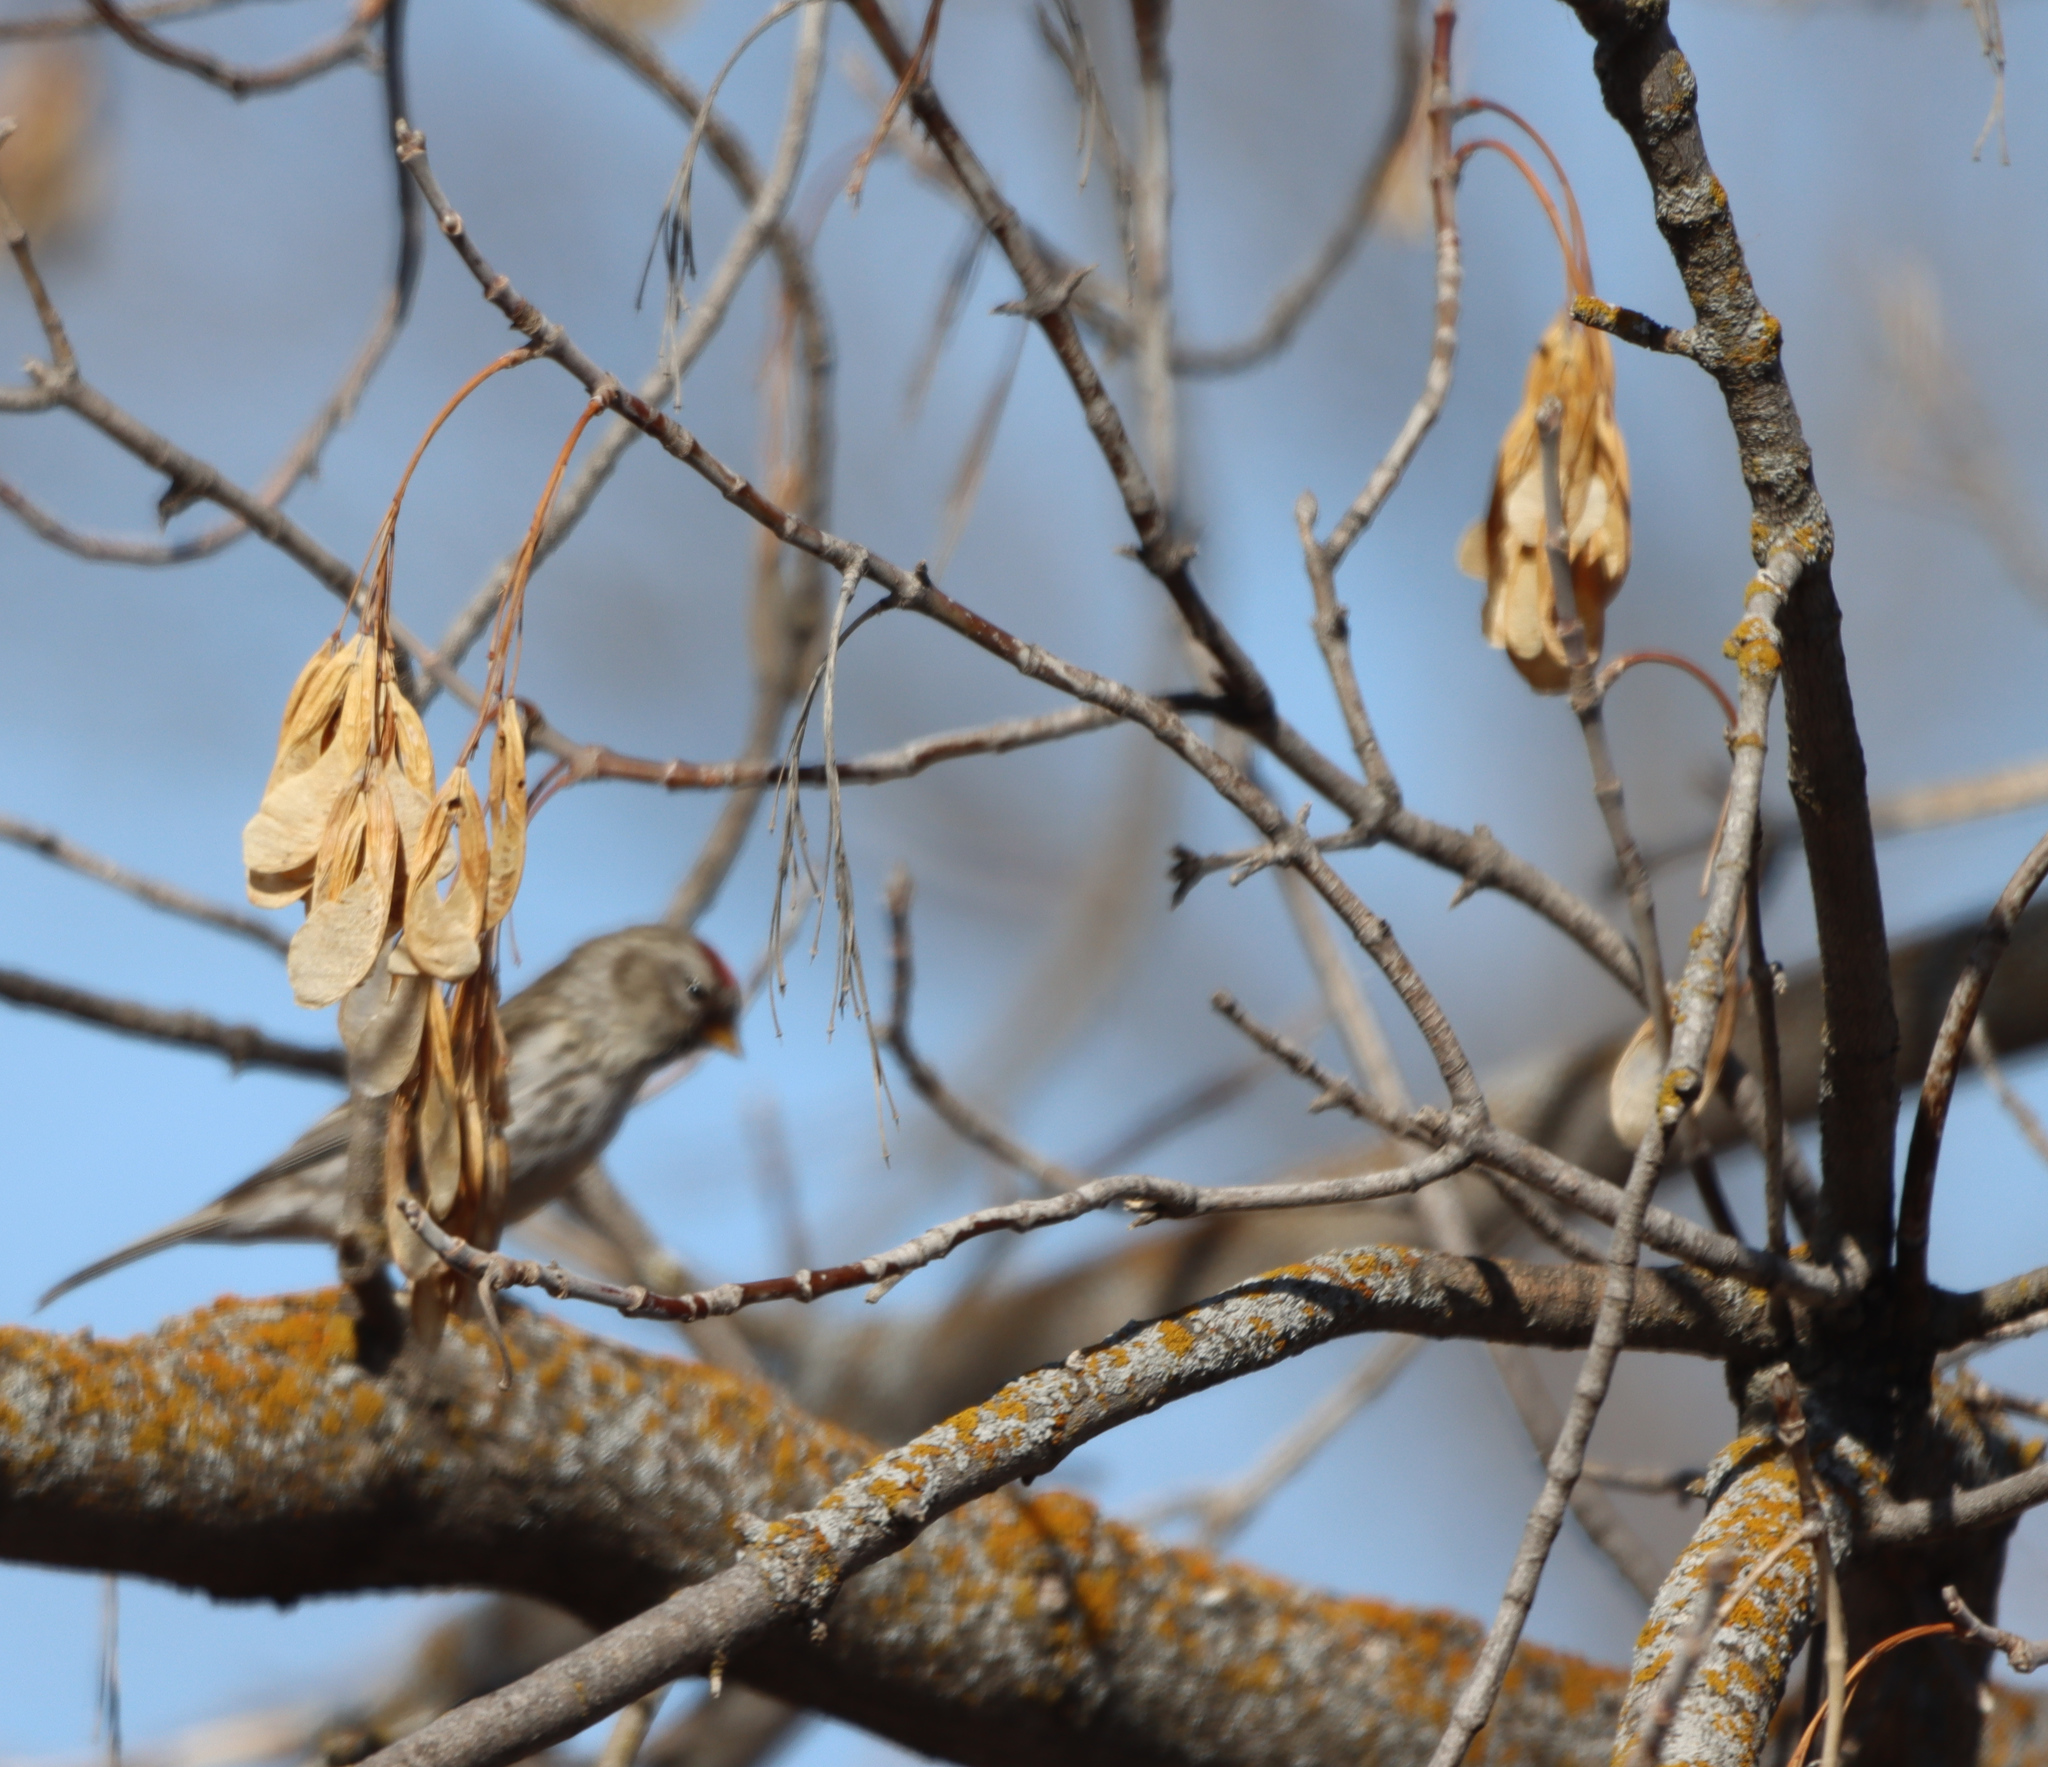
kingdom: Plantae
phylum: Tracheophyta
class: Magnoliopsida
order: Sapindales
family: Sapindaceae
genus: Acer
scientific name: Acer negundo
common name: Ashleaf maple
